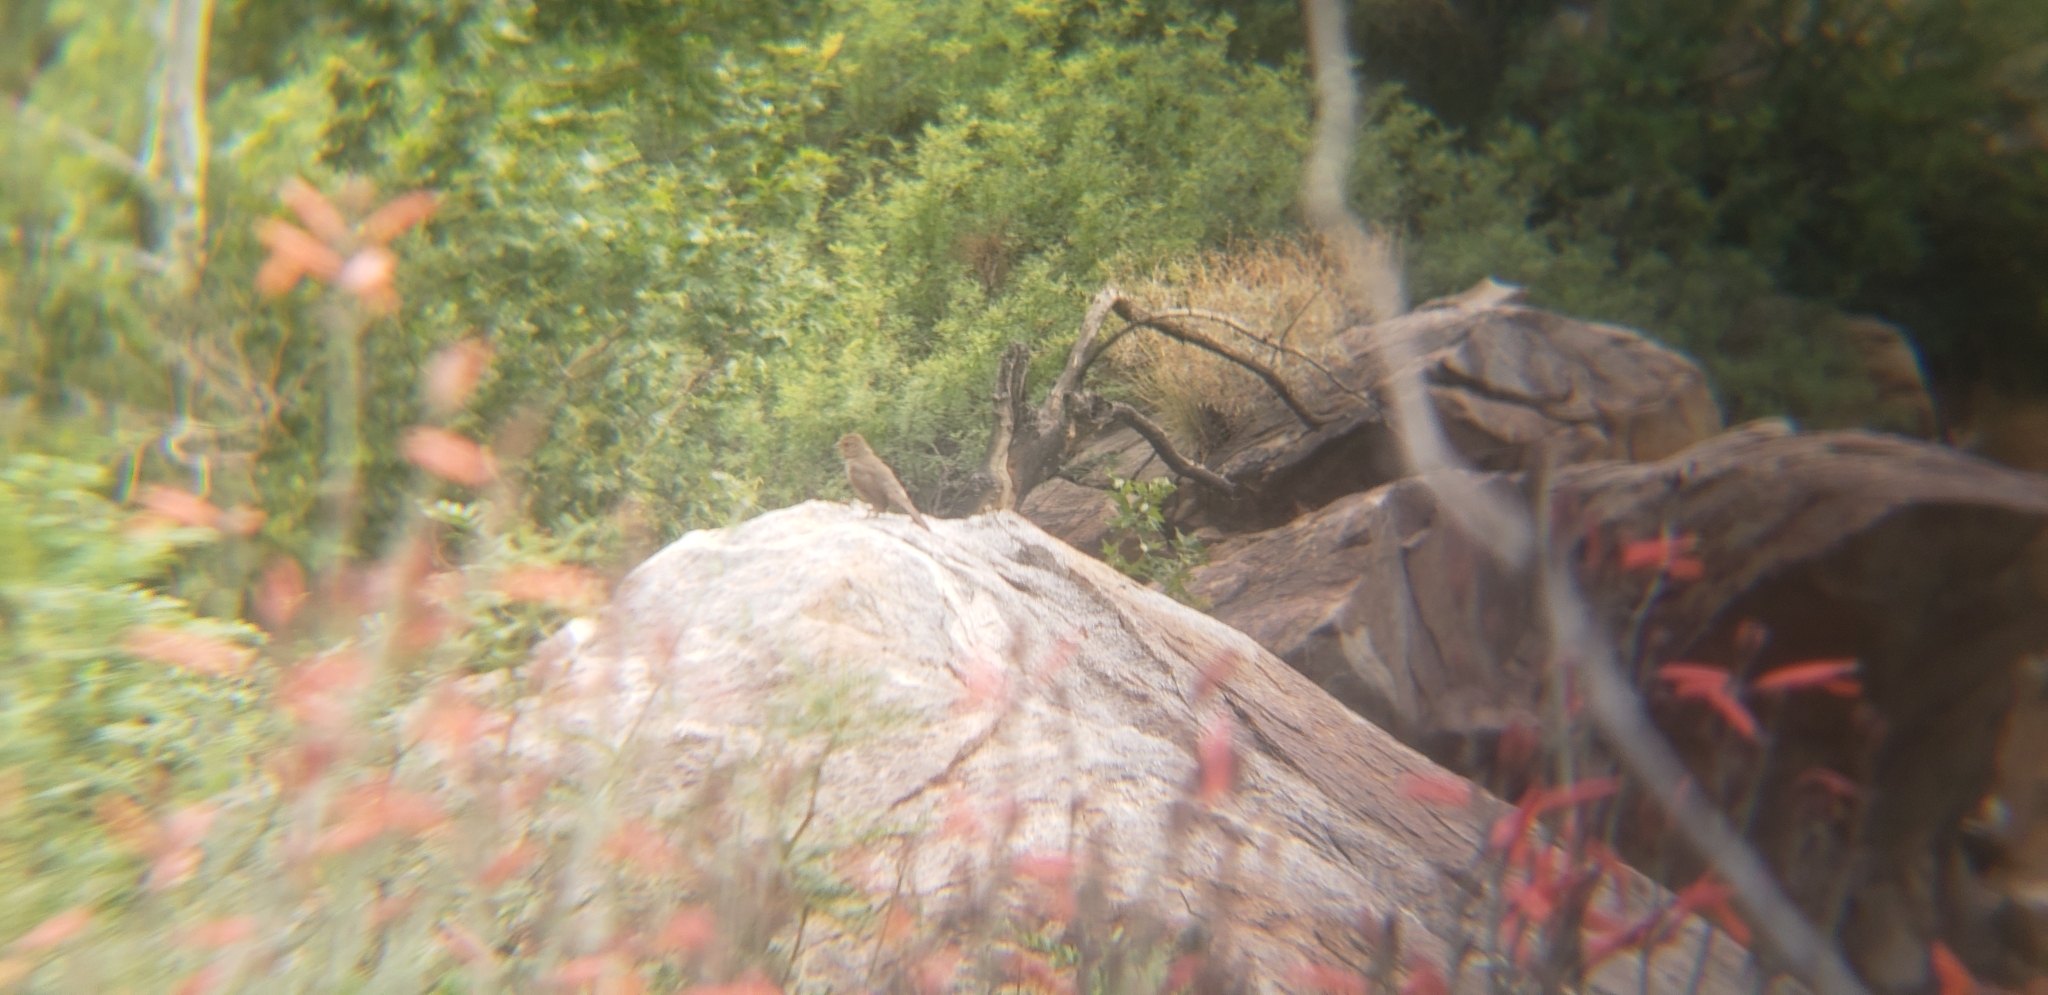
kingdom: Animalia
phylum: Chordata
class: Aves
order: Passeriformes
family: Passerellidae
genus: Melozone
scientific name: Melozone crissalis
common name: California towhee
